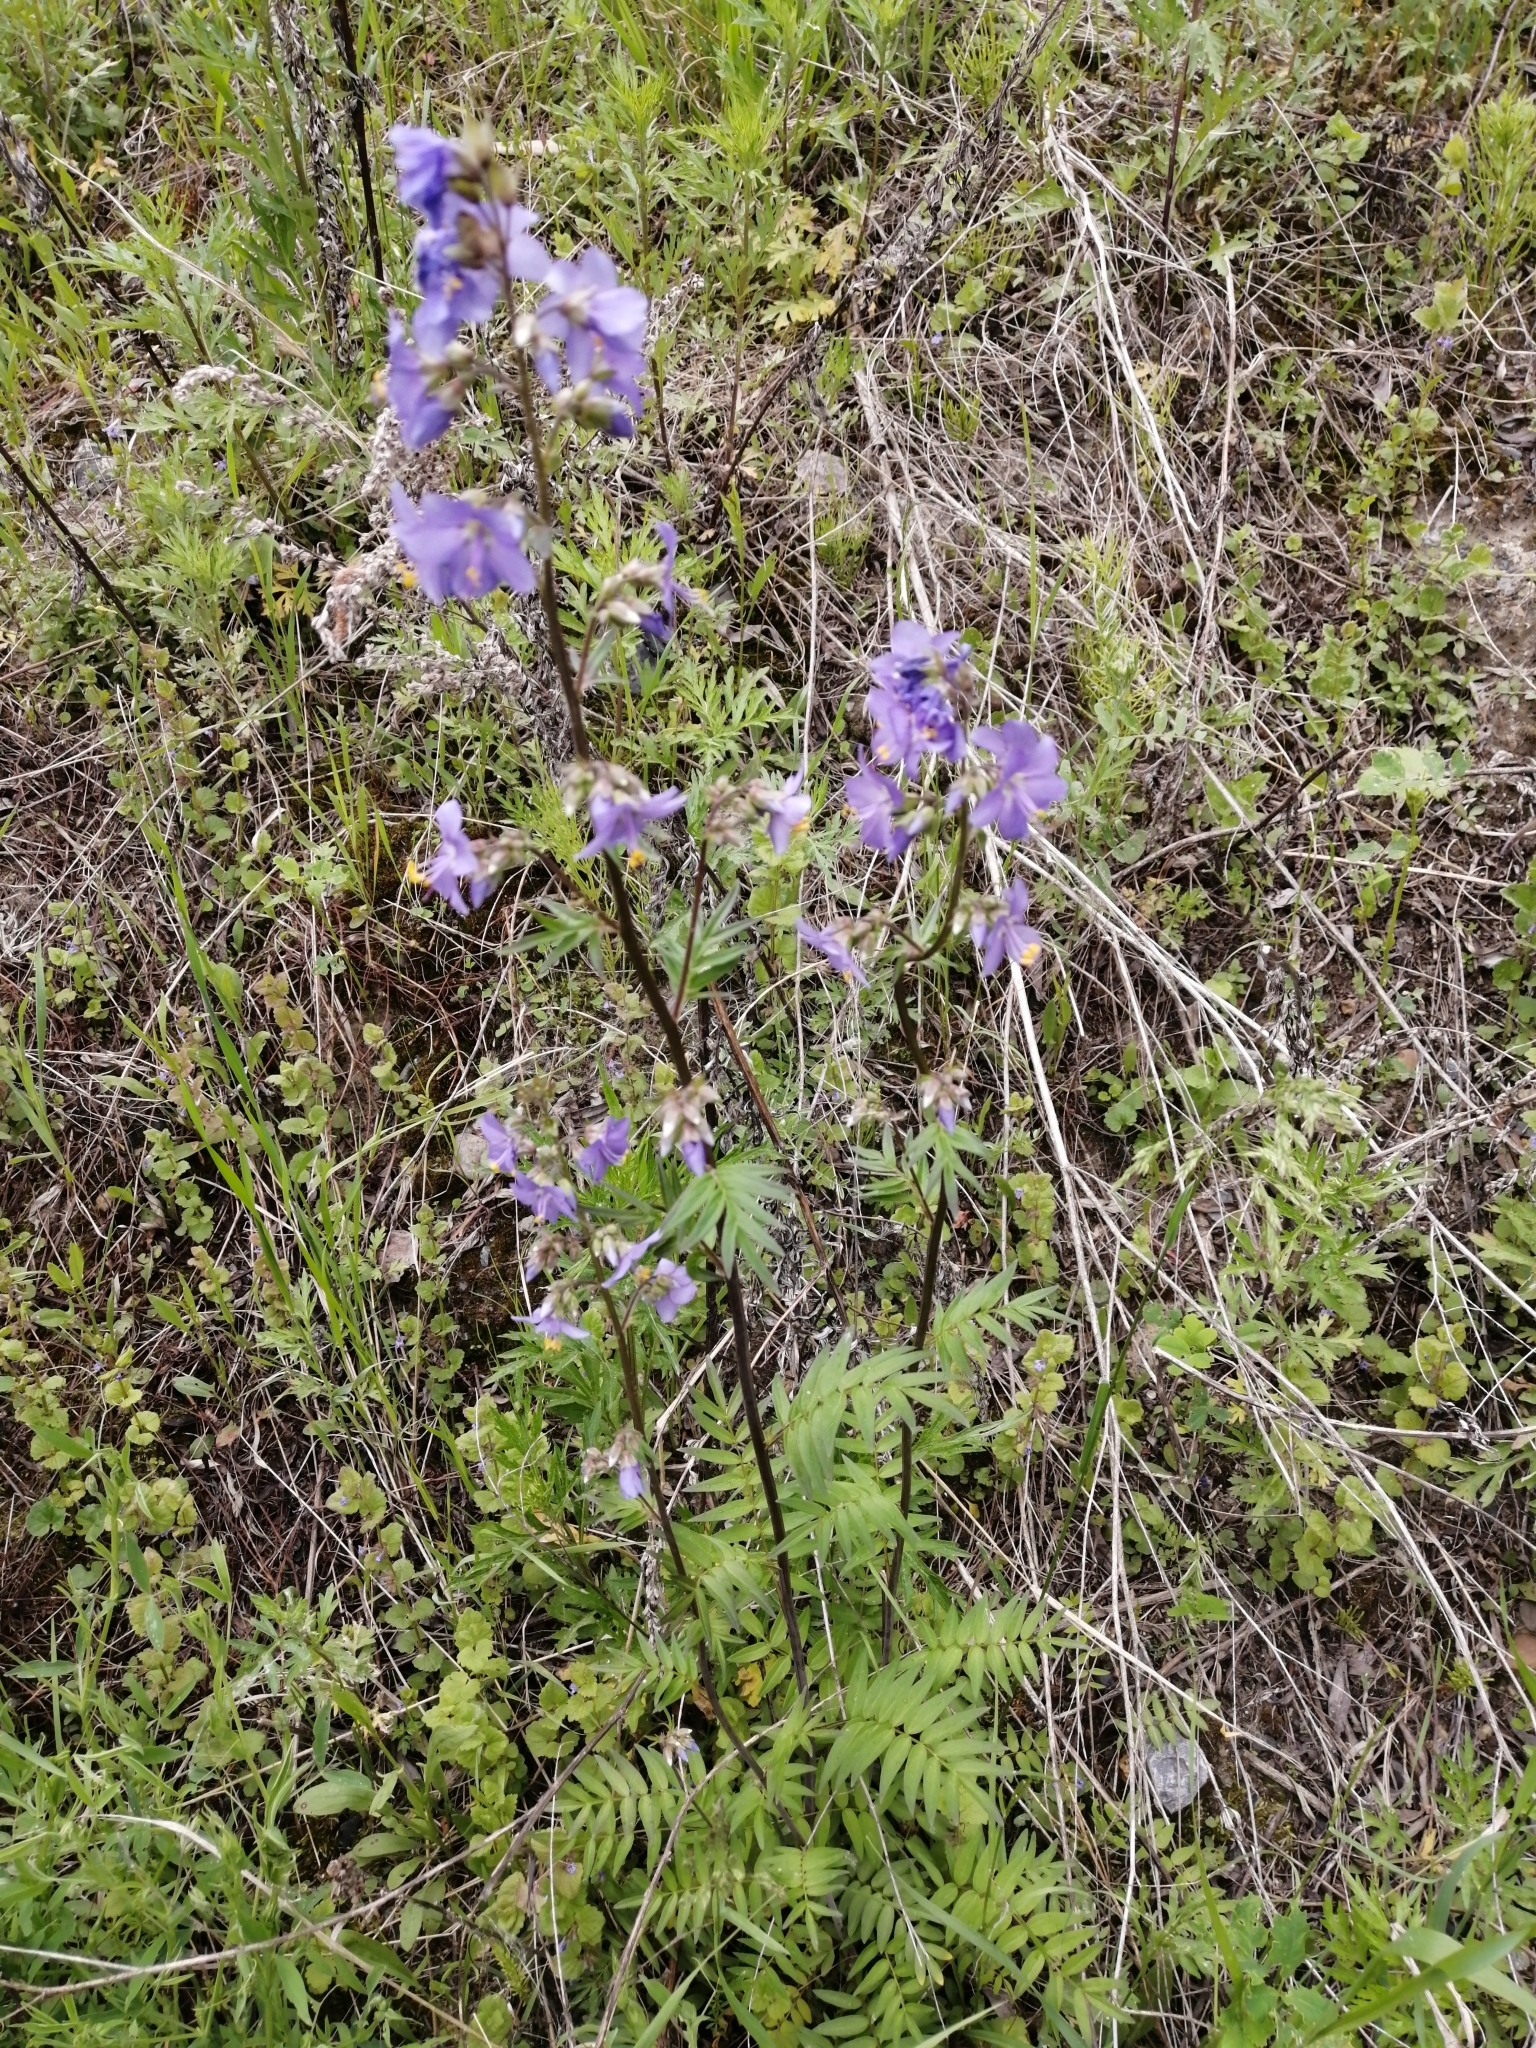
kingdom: Plantae
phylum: Tracheophyta
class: Magnoliopsida
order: Ericales
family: Polemoniaceae
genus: Polemonium
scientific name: Polemonium caeruleum
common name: Jacob's-ladder
